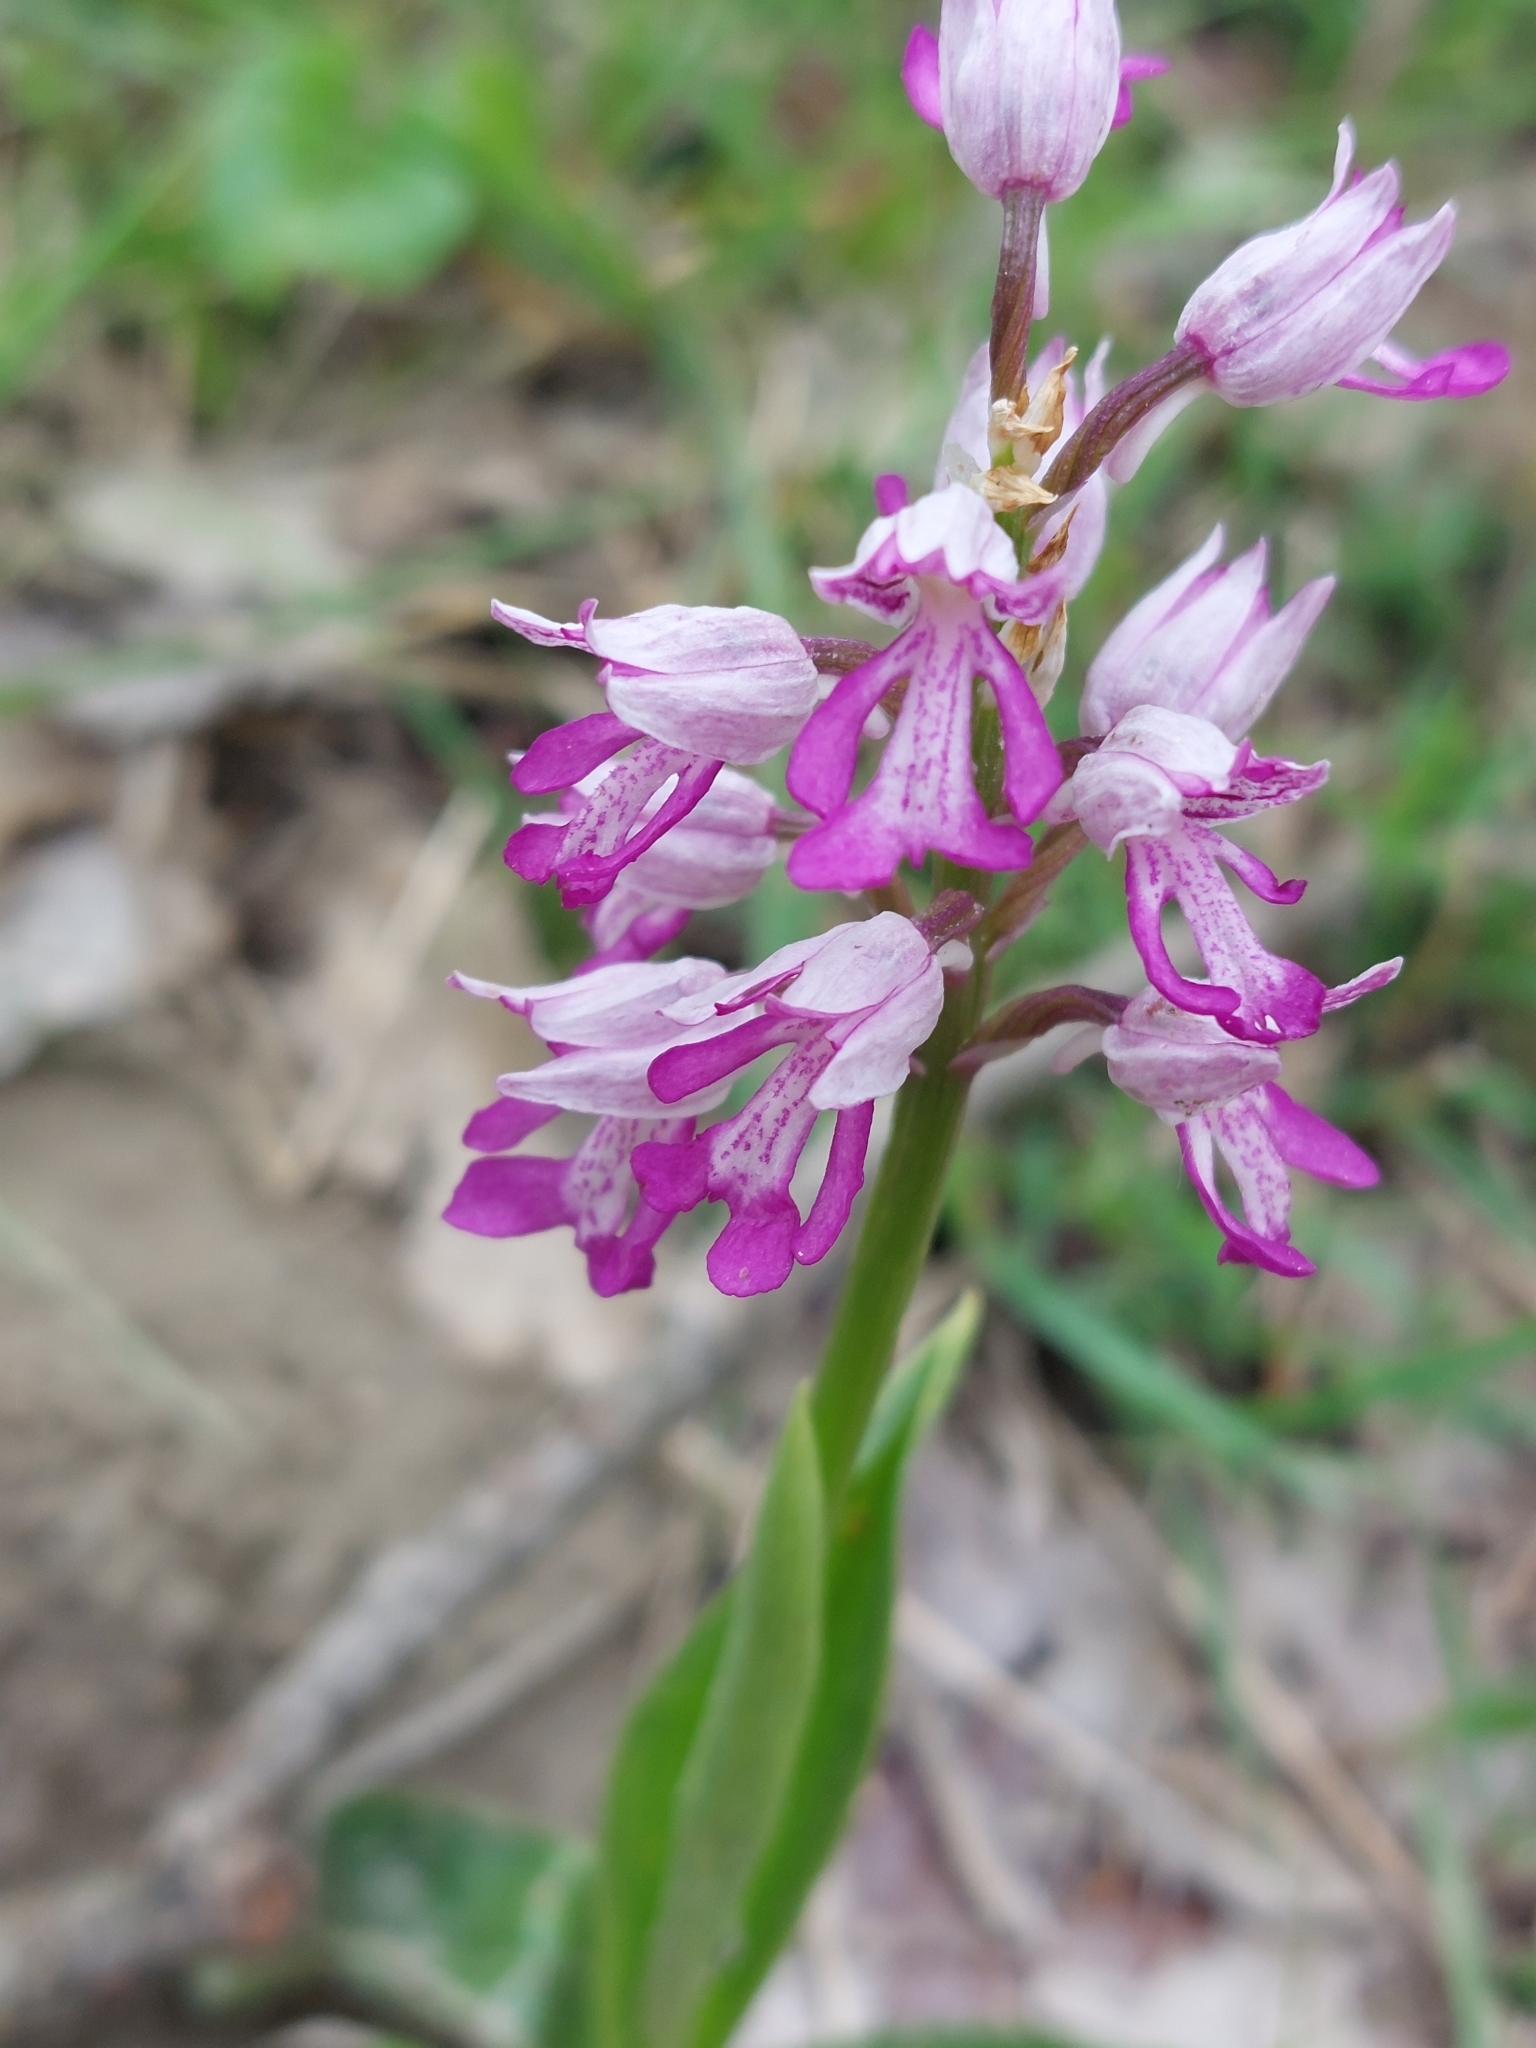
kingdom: Plantae
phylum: Tracheophyta
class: Liliopsida
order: Asparagales
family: Orchidaceae
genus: Orchis
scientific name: Orchis militaris
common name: Military orchid
